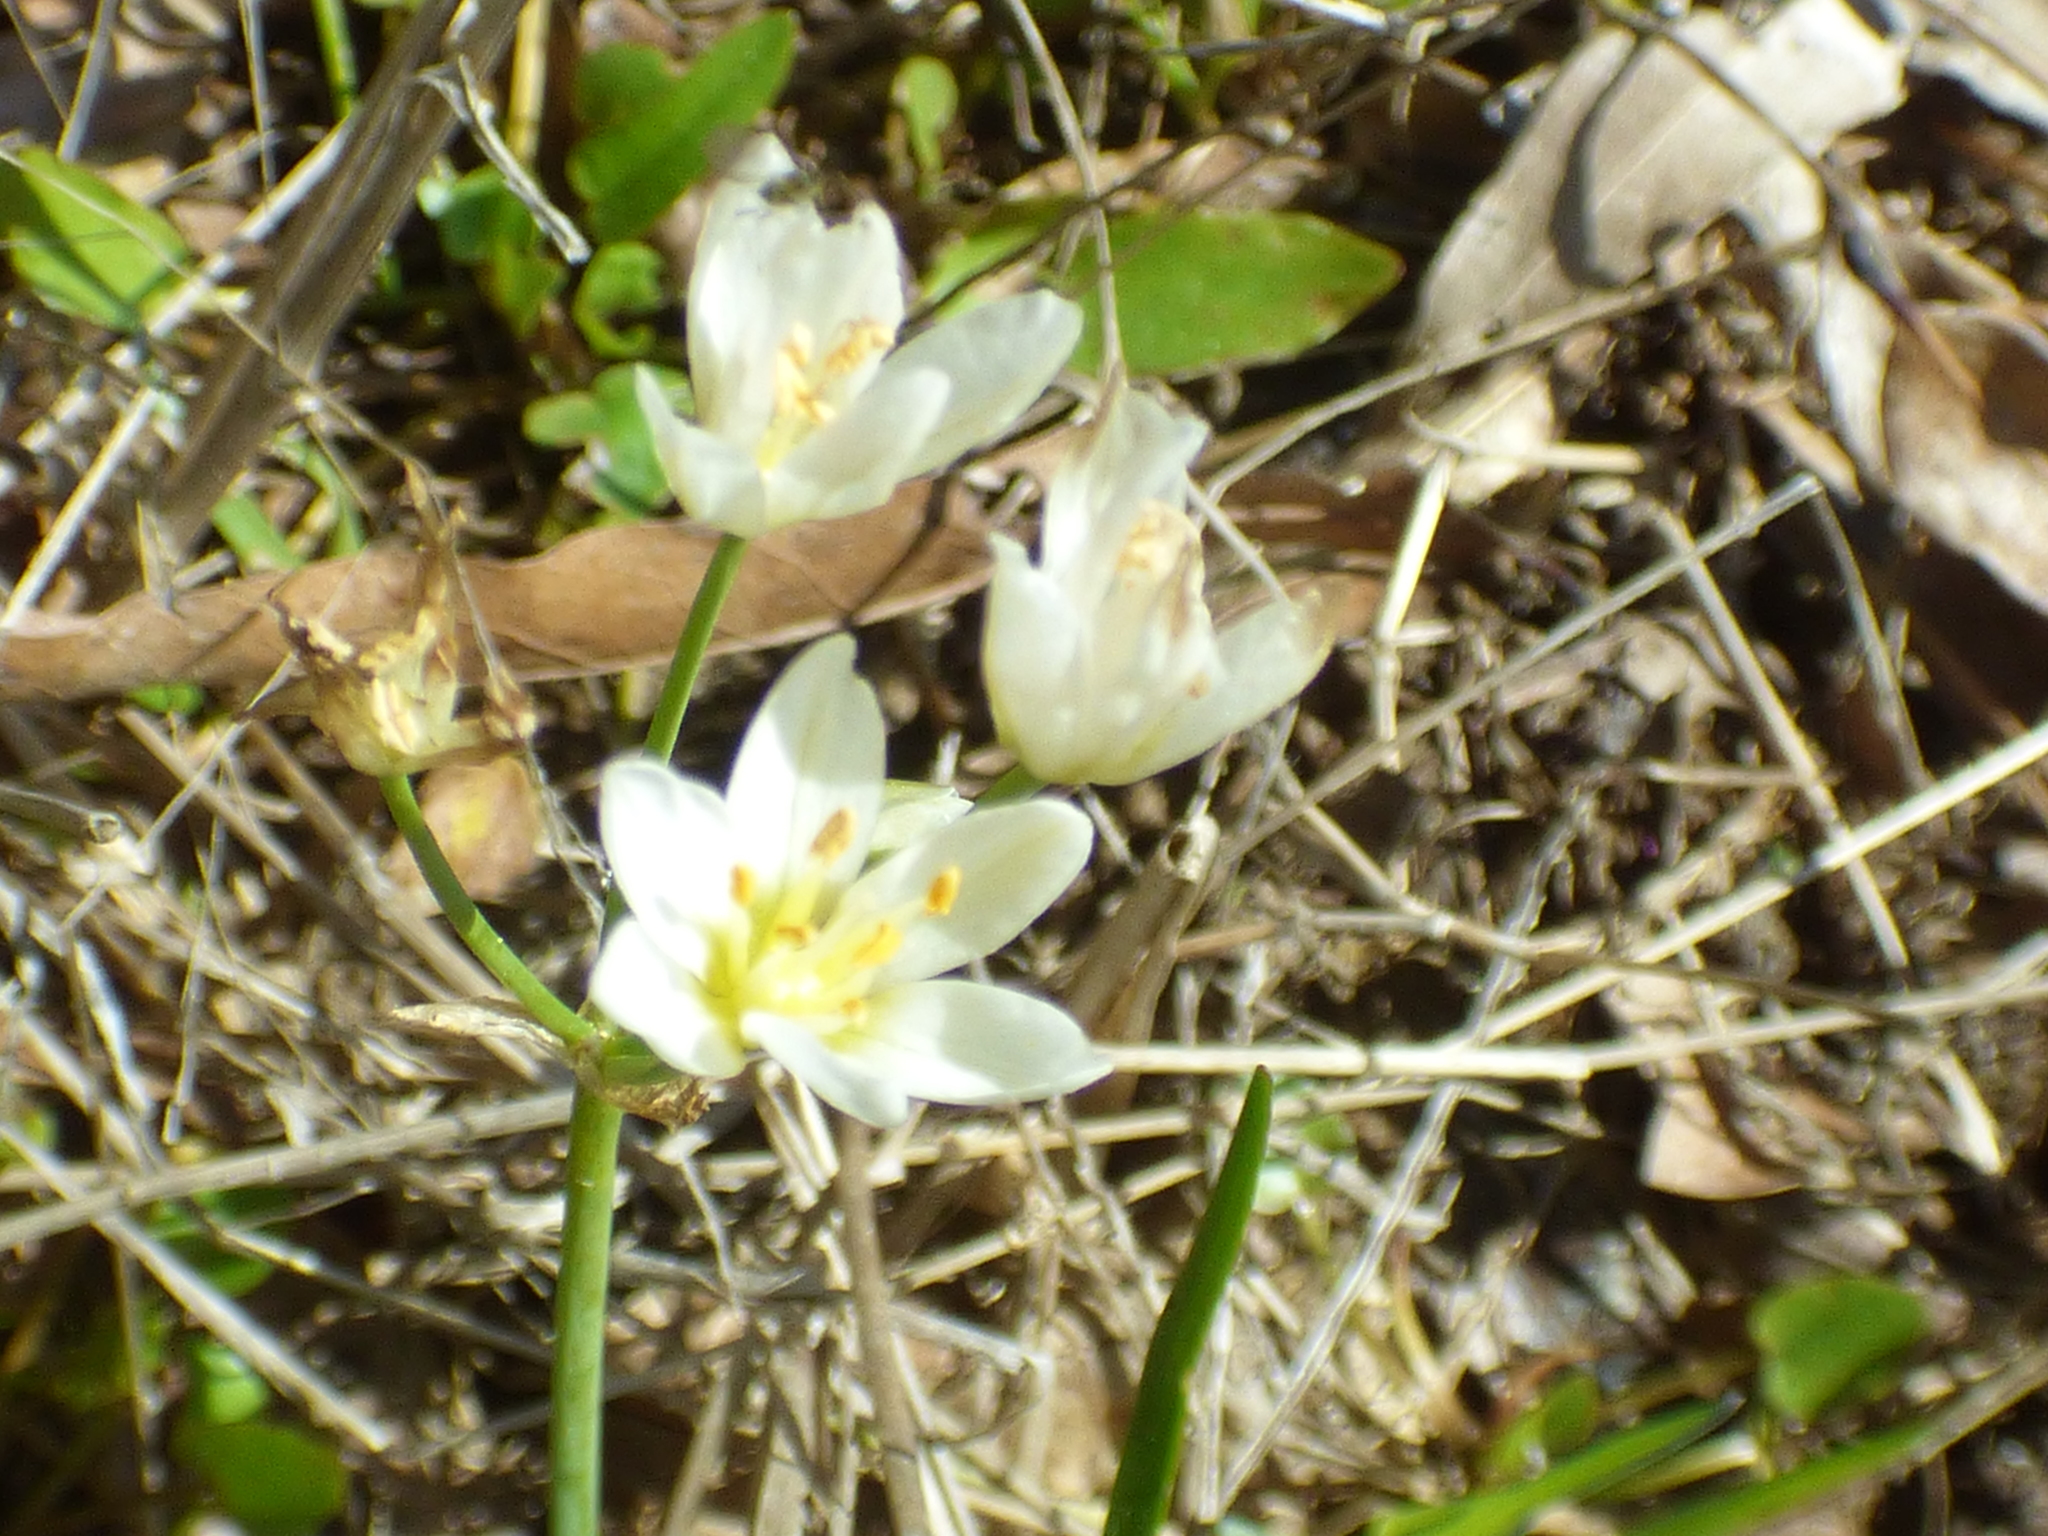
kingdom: Plantae
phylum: Tracheophyta
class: Liliopsida
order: Asparagales
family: Amaryllidaceae
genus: Nothoscordum
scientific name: Nothoscordum bivalve
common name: Crow-poison
